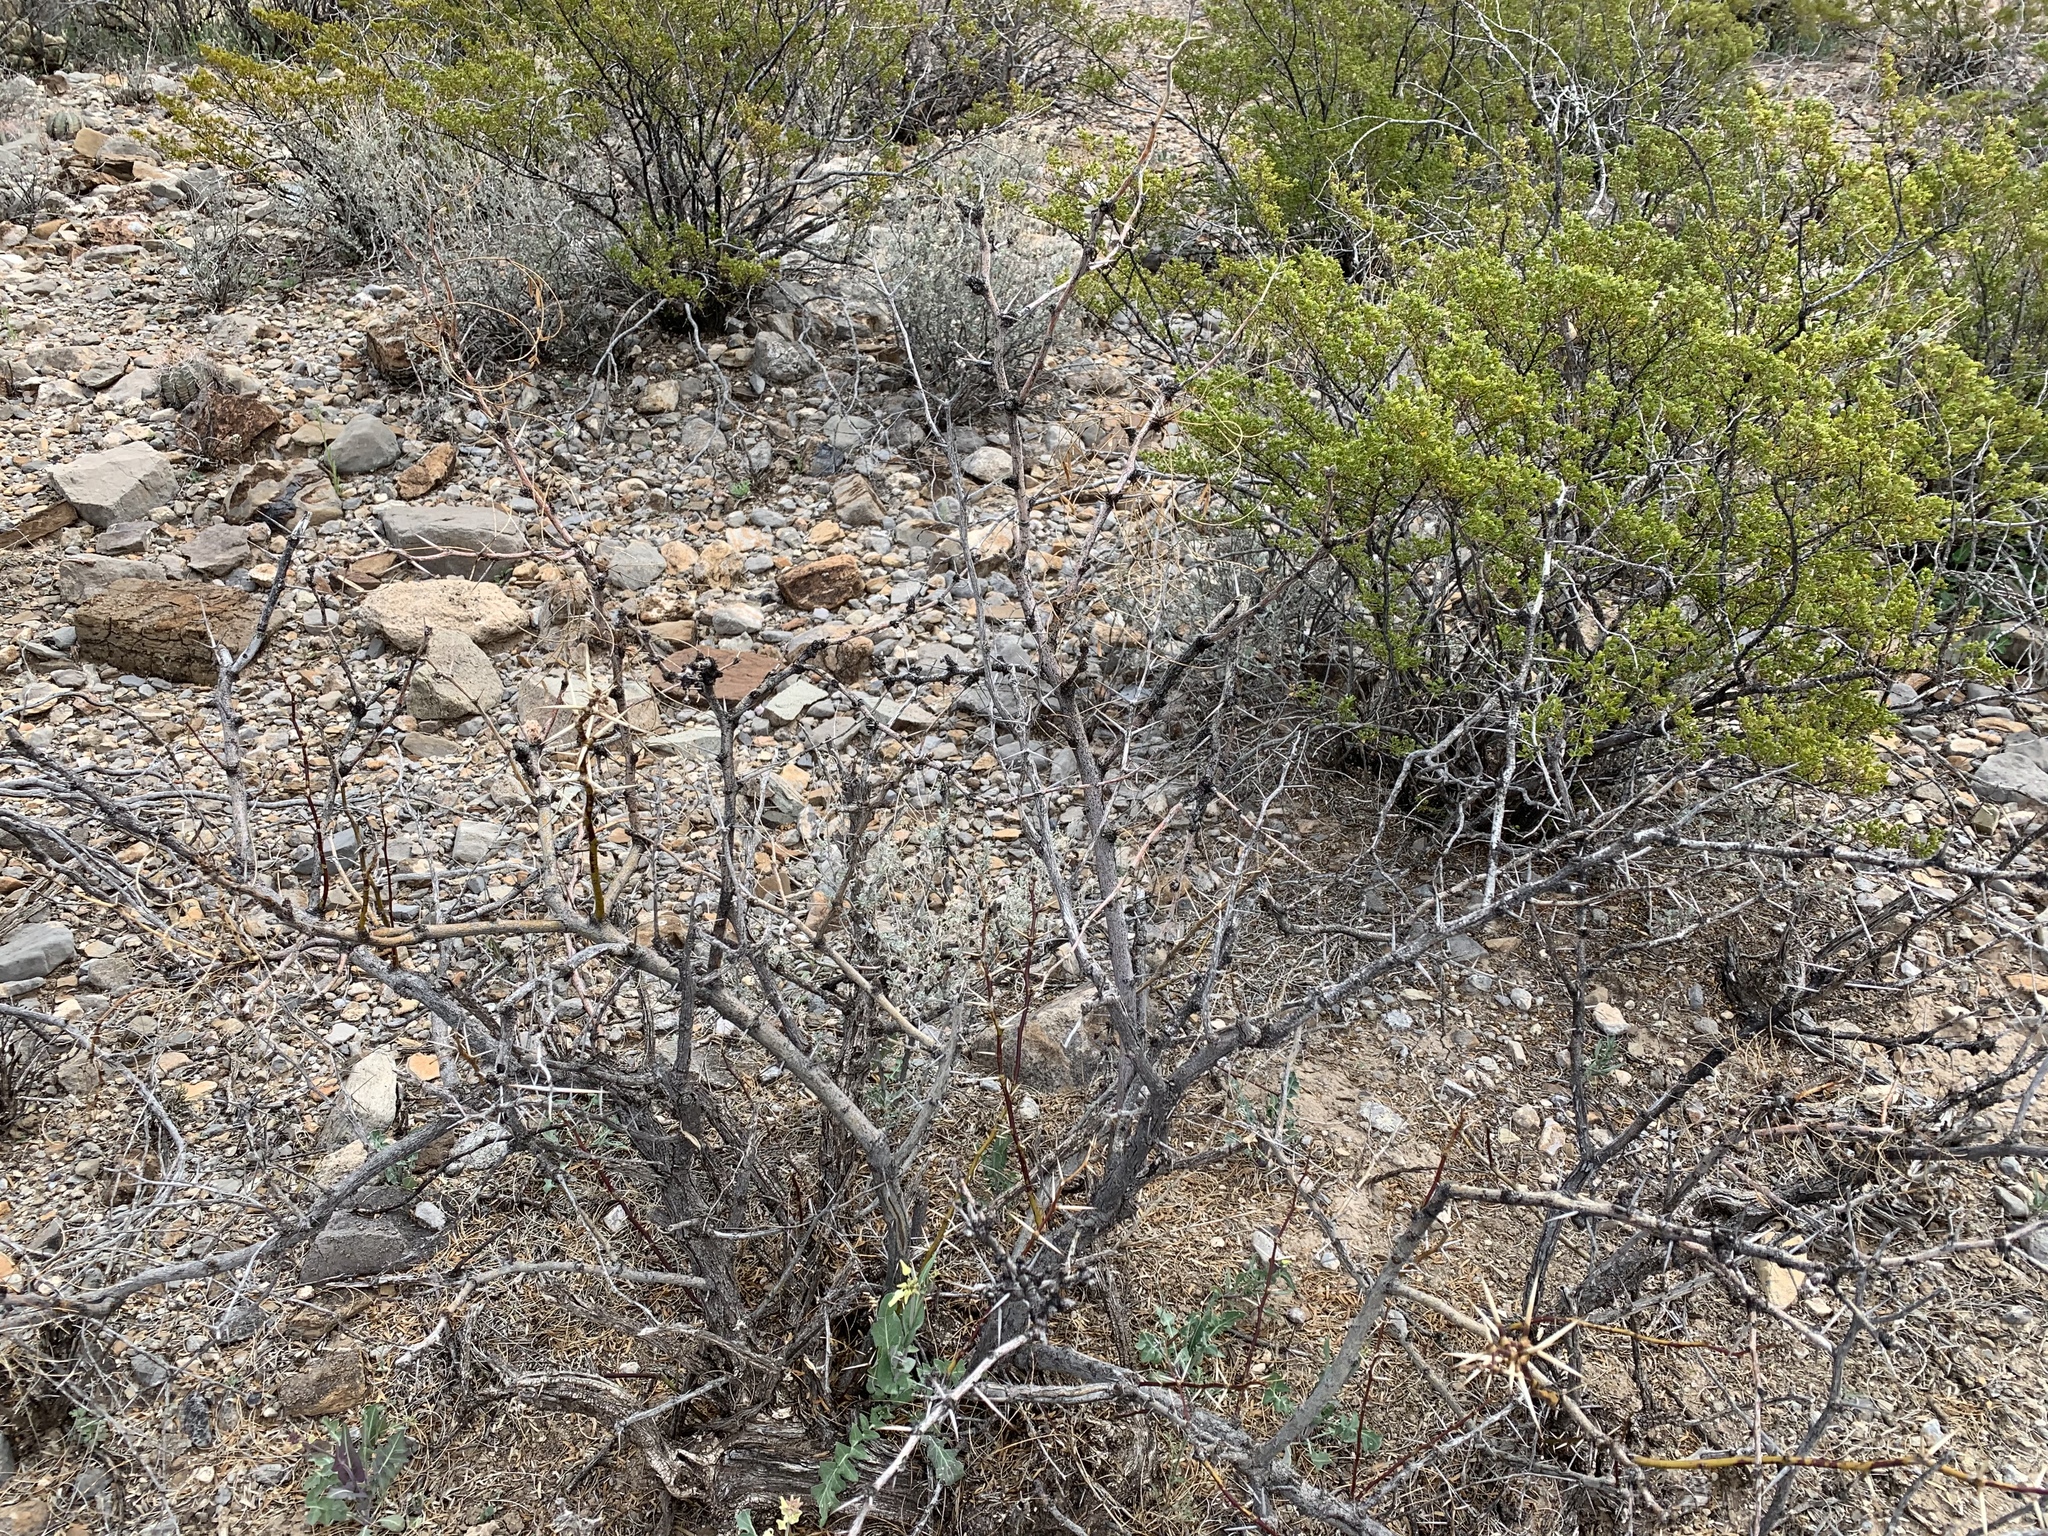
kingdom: Plantae
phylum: Tracheophyta
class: Magnoliopsida
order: Fabales
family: Fabaceae
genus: Prosopis
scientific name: Prosopis glandulosa
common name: Honey mesquite
